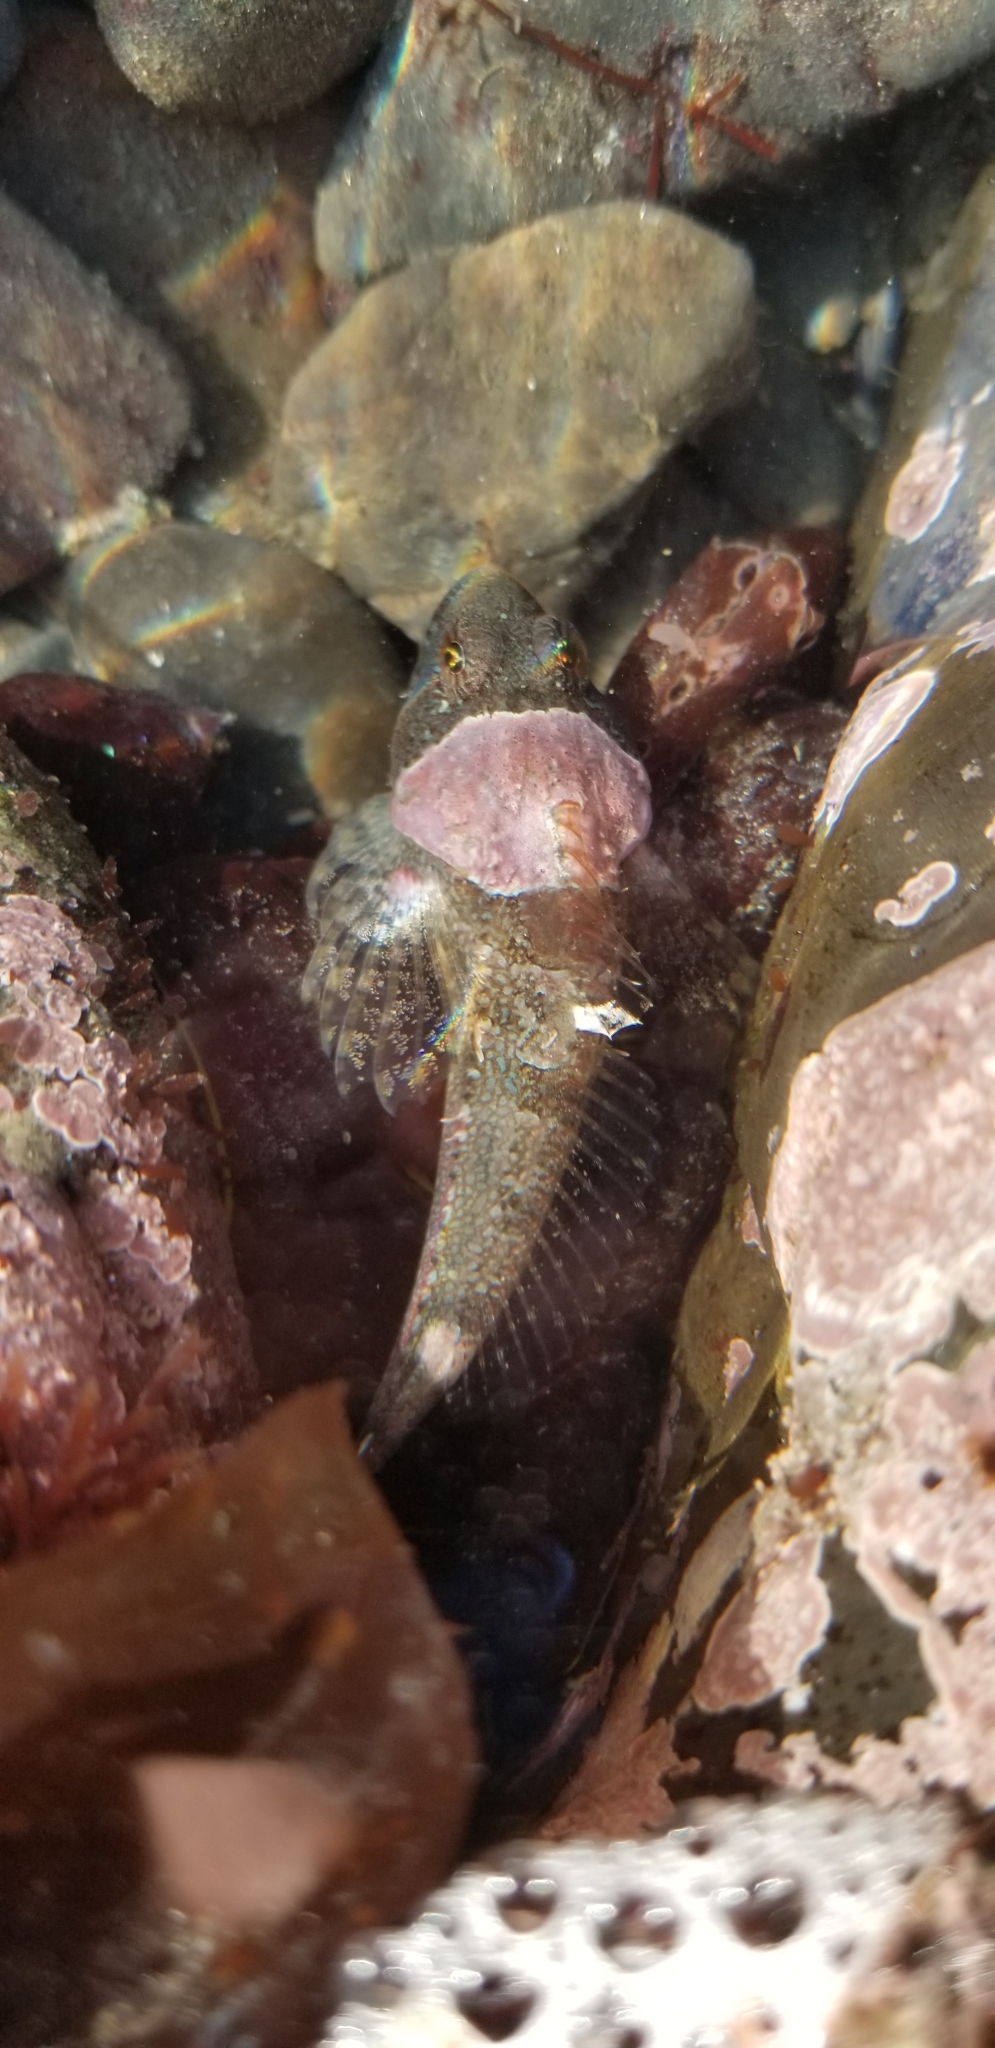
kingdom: Animalia
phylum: Chordata
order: Scorpaeniformes
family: Cottidae
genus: Artedius
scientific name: Artedius lateralis
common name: Smooth-head sculpin
